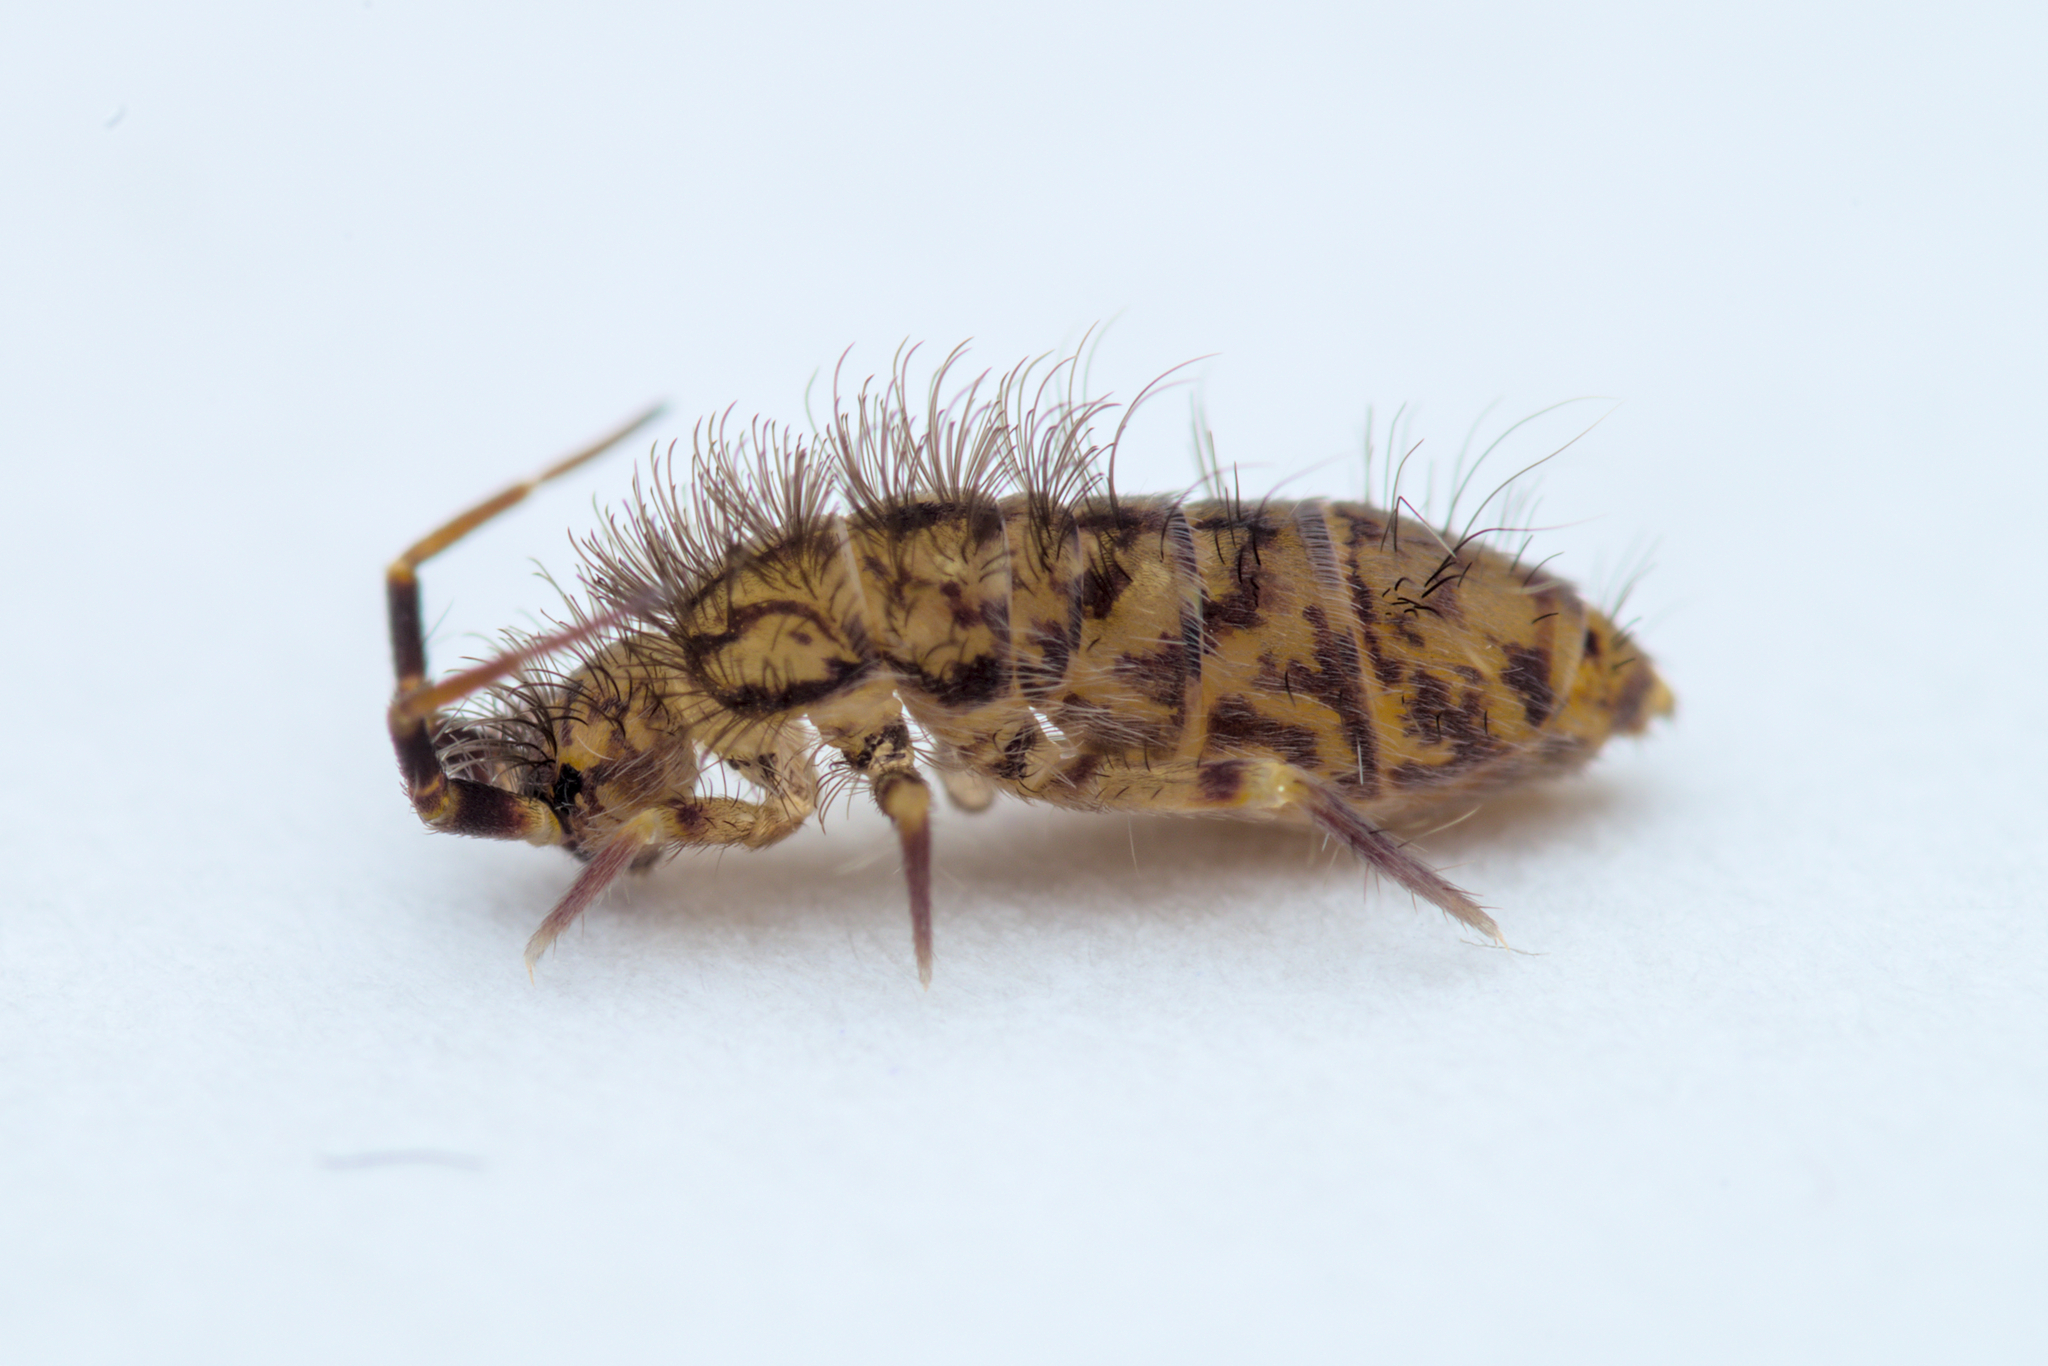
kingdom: Animalia
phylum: Arthropoda
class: Collembola
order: Entomobryomorpha
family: Orchesellidae
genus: Orchesella
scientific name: Orchesella villosa
